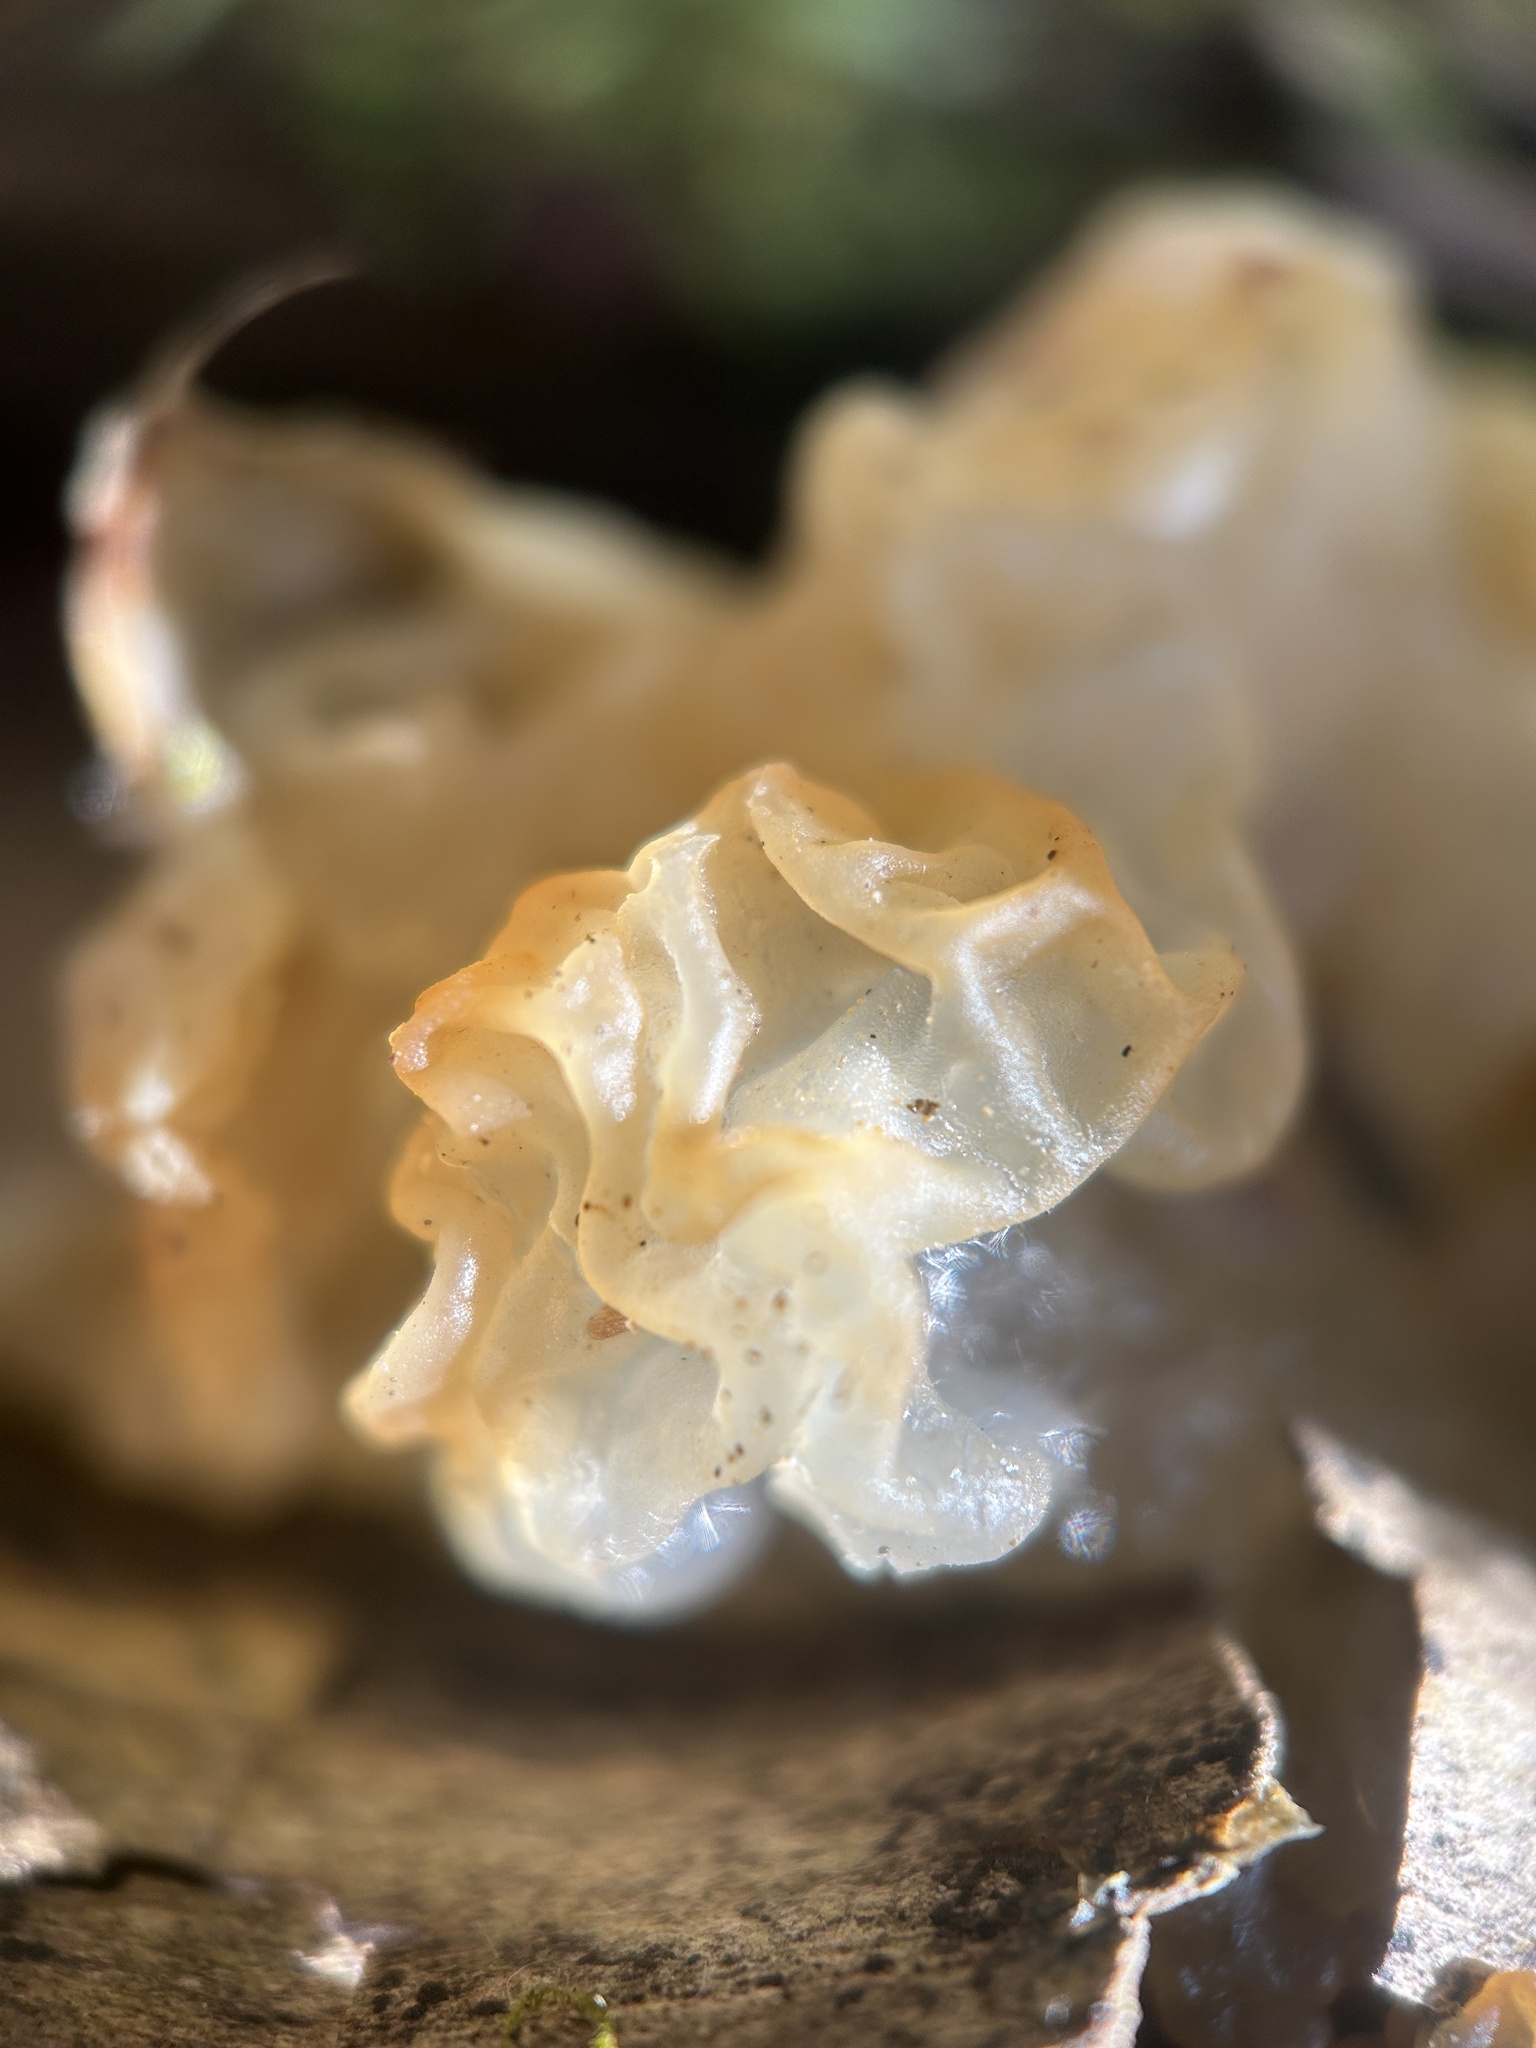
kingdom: Fungi
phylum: Basidiomycota
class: Agaricomycetes
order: Auriculariales
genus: Ductifera
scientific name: Ductifera pululahuana
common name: White jelly fungus
